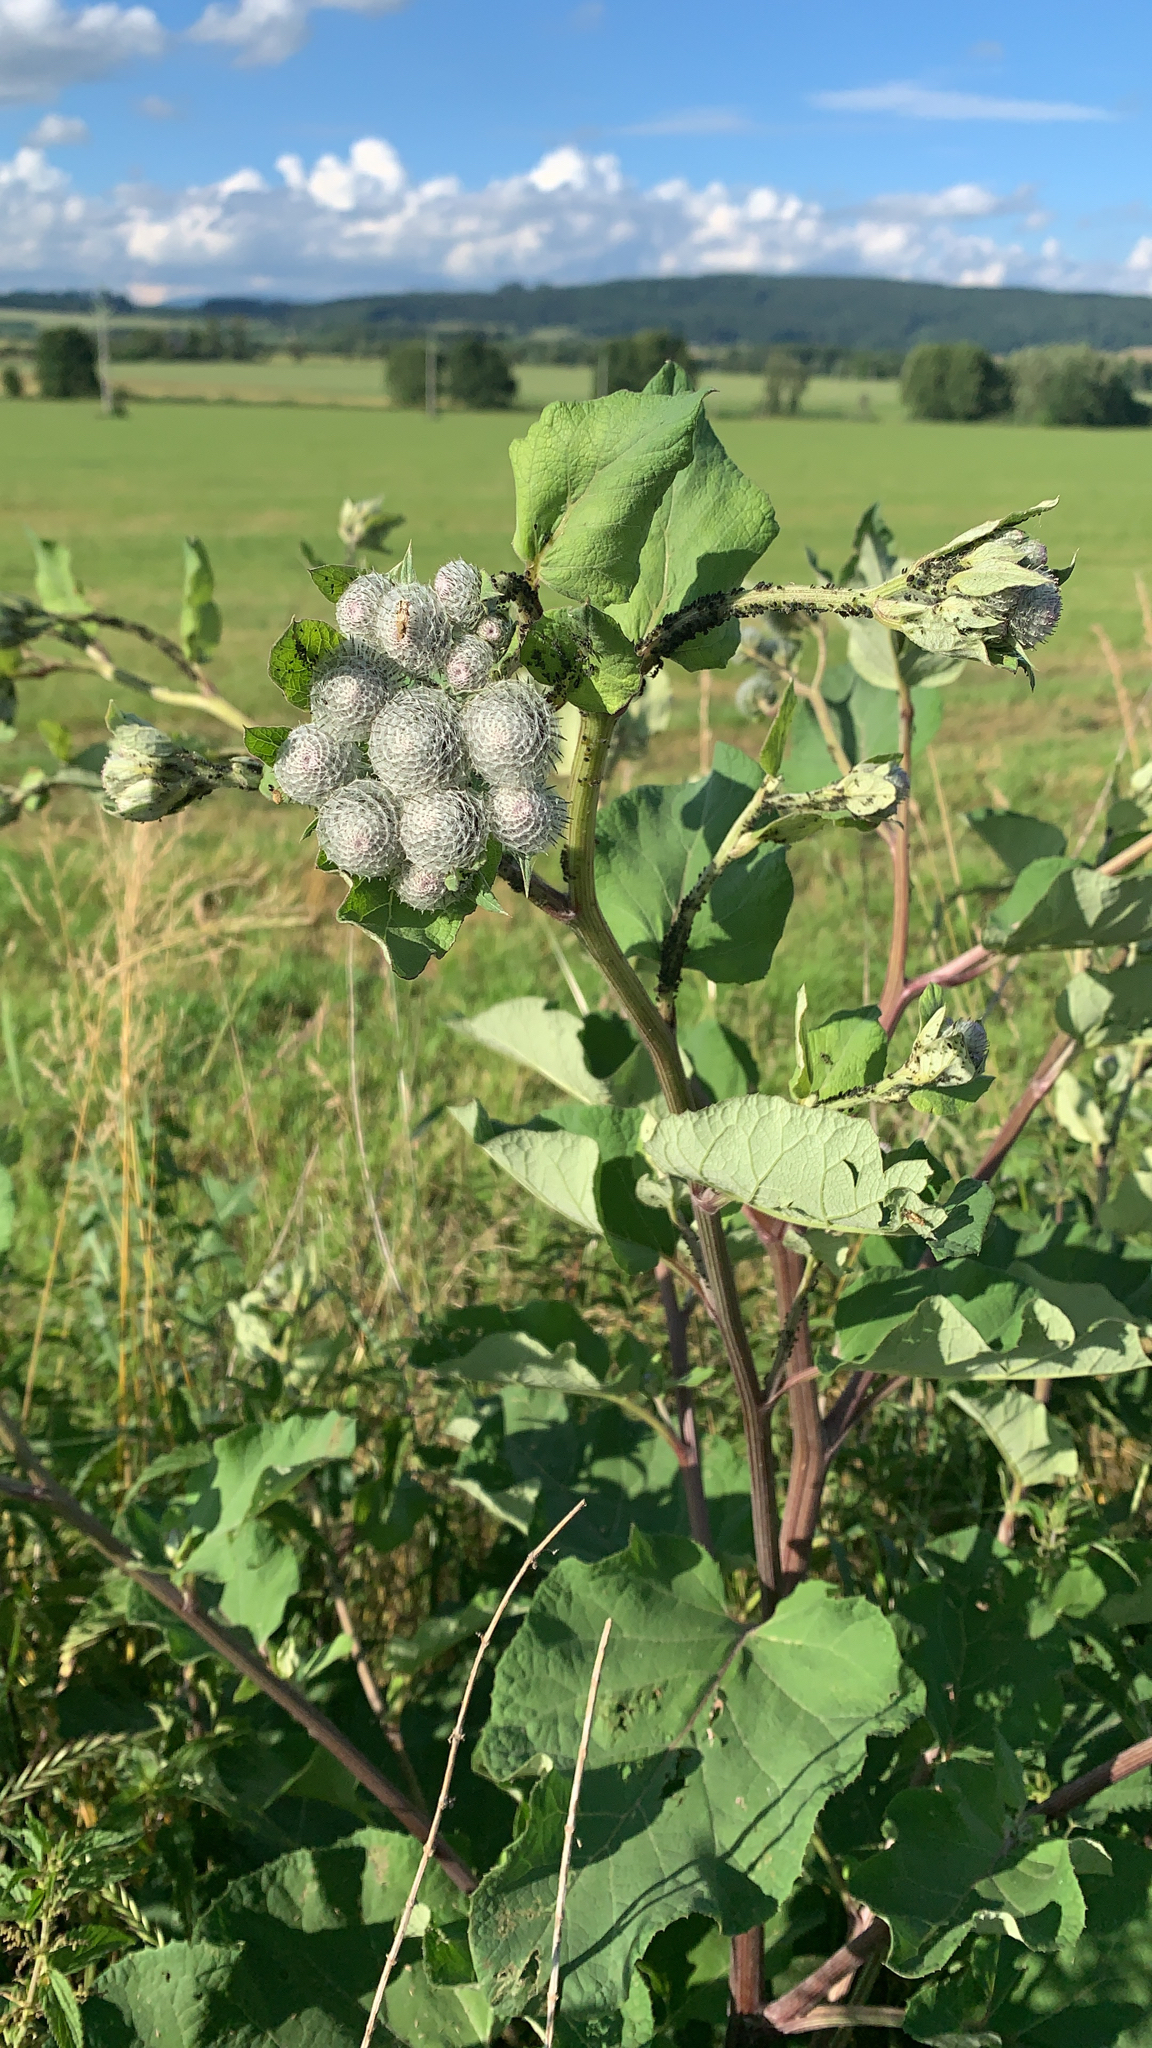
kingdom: Plantae
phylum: Tracheophyta
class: Magnoliopsida
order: Asterales
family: Asteraceae
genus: Arctium
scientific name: Arctium tomentosum
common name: Woolly burdock
